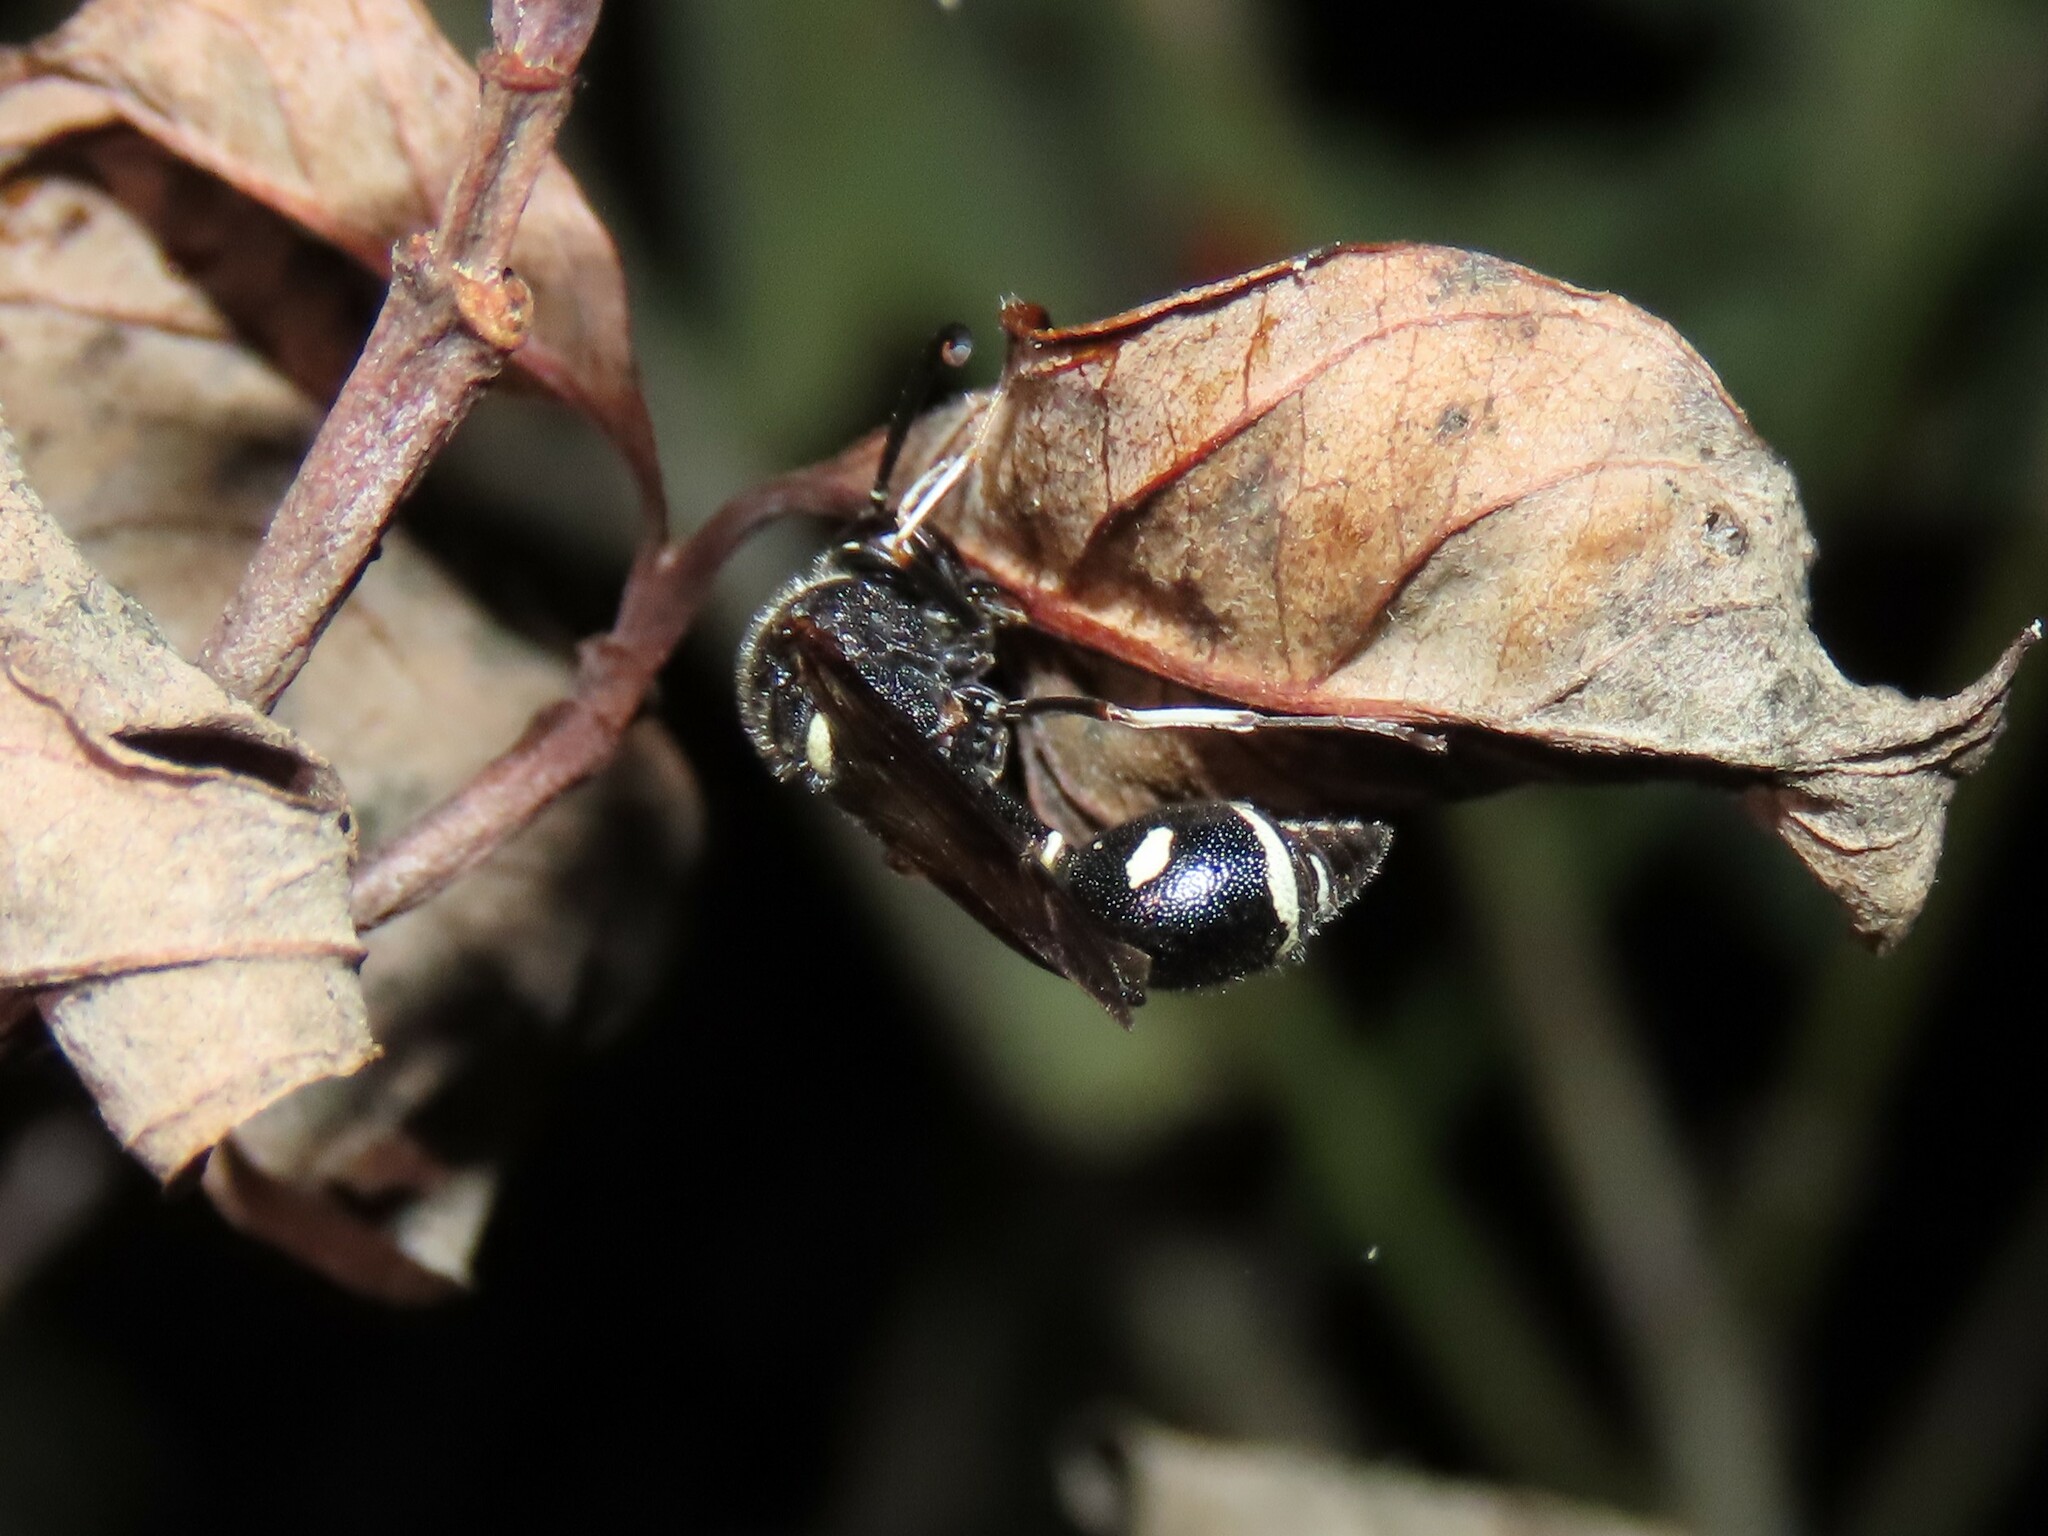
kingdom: Animalia
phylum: Arthropoda
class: Insecta
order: Hymenoptera
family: Vespidae
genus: Eumenes
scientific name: Eumenes fraternus
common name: Fraternal potter wasp
